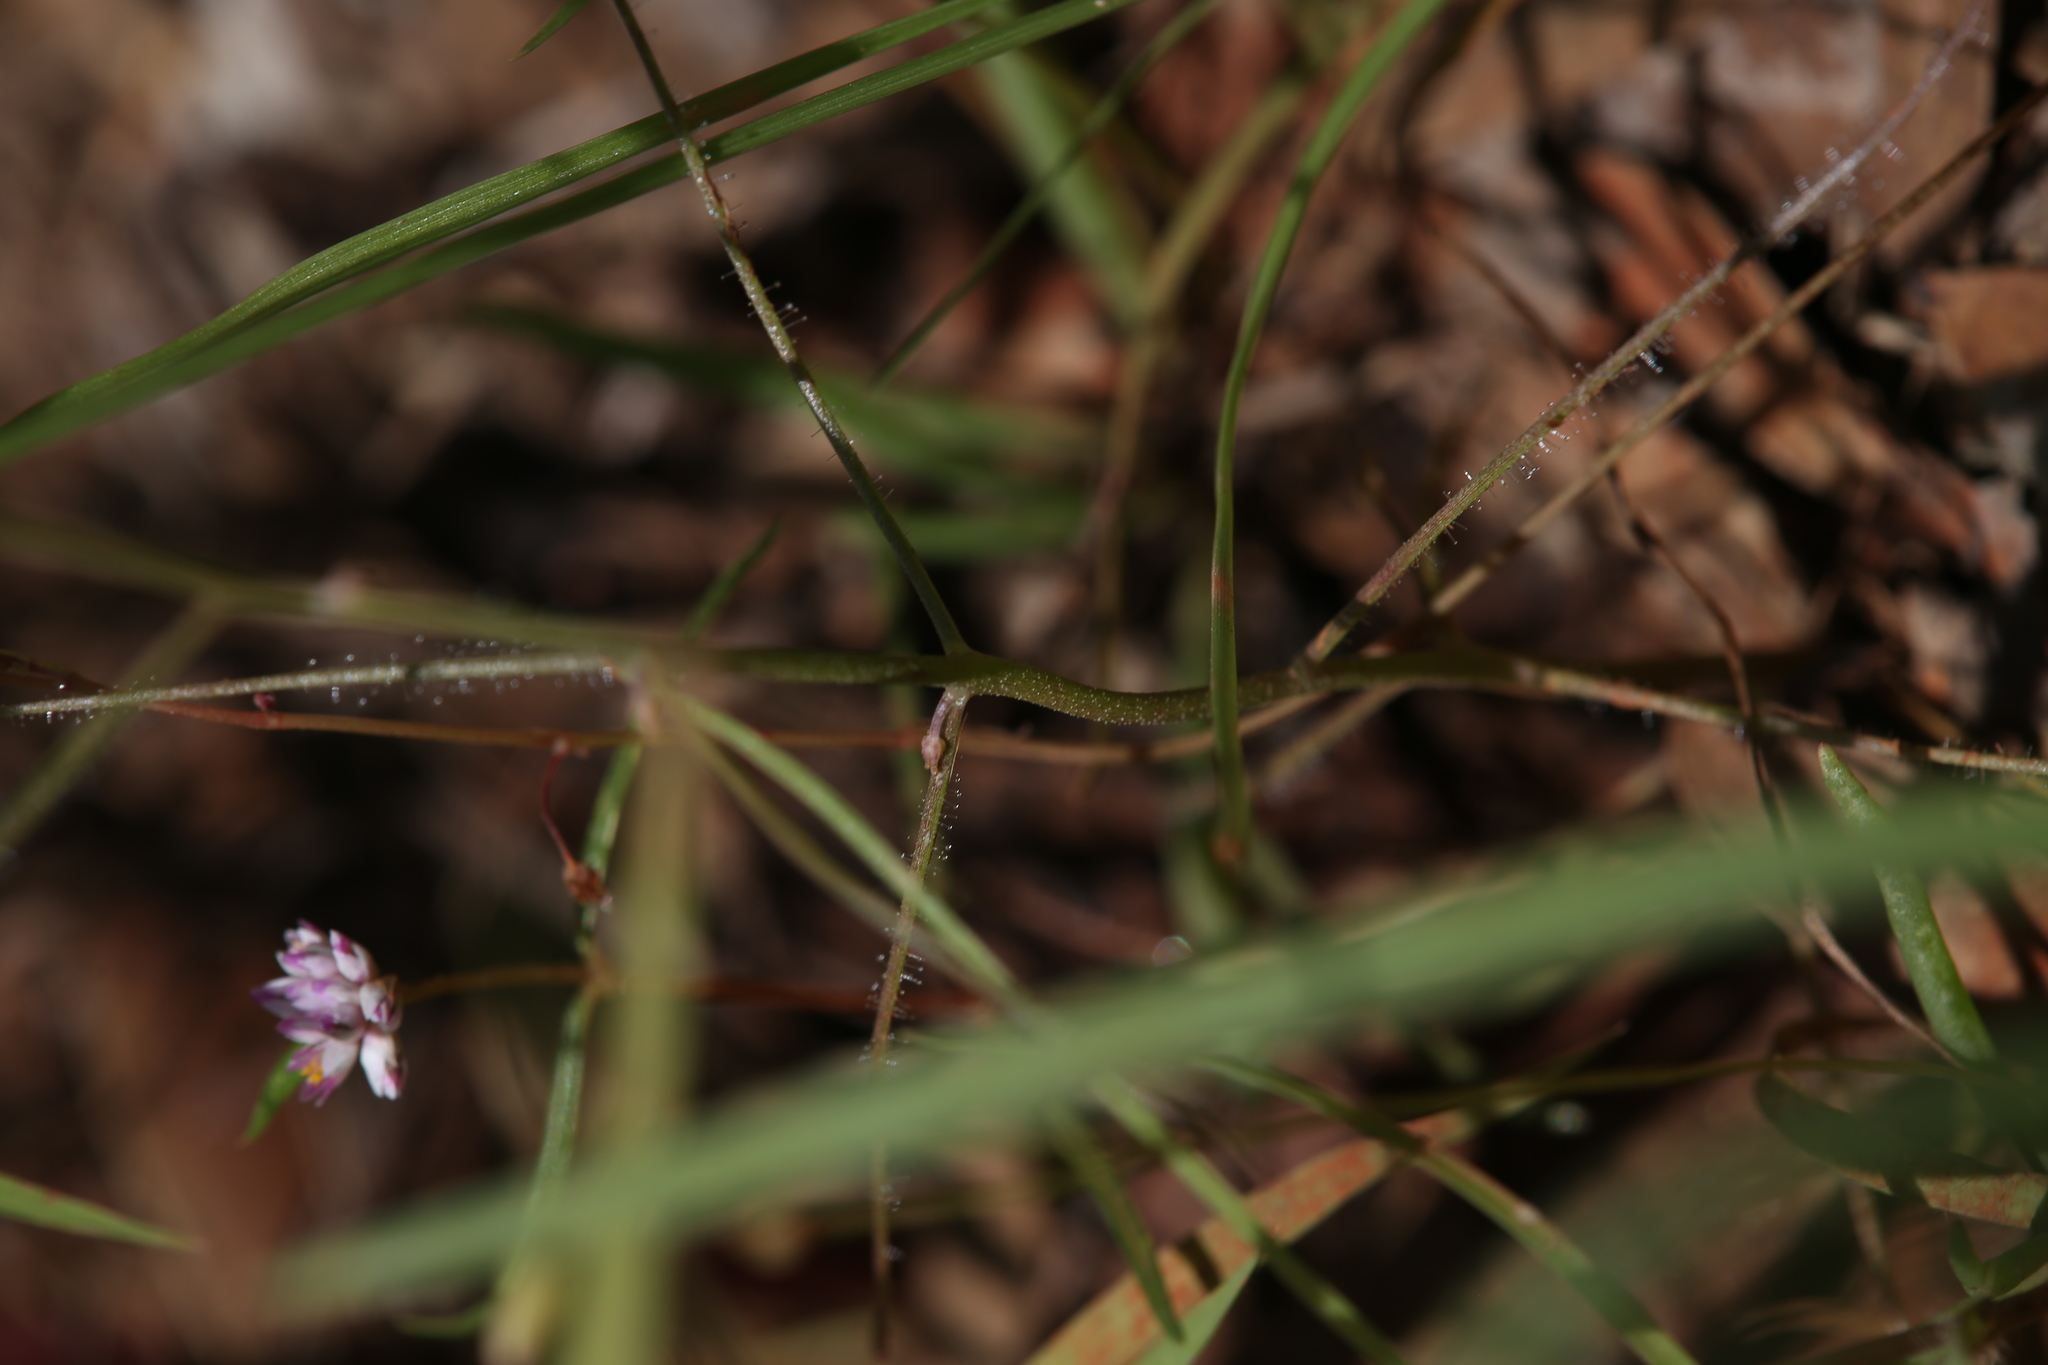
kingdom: Plantae
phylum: Tracheophyta
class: Magnoliopsida
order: Lamiales
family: Byblidaceae
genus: Byblis
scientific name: Byblis rorida
